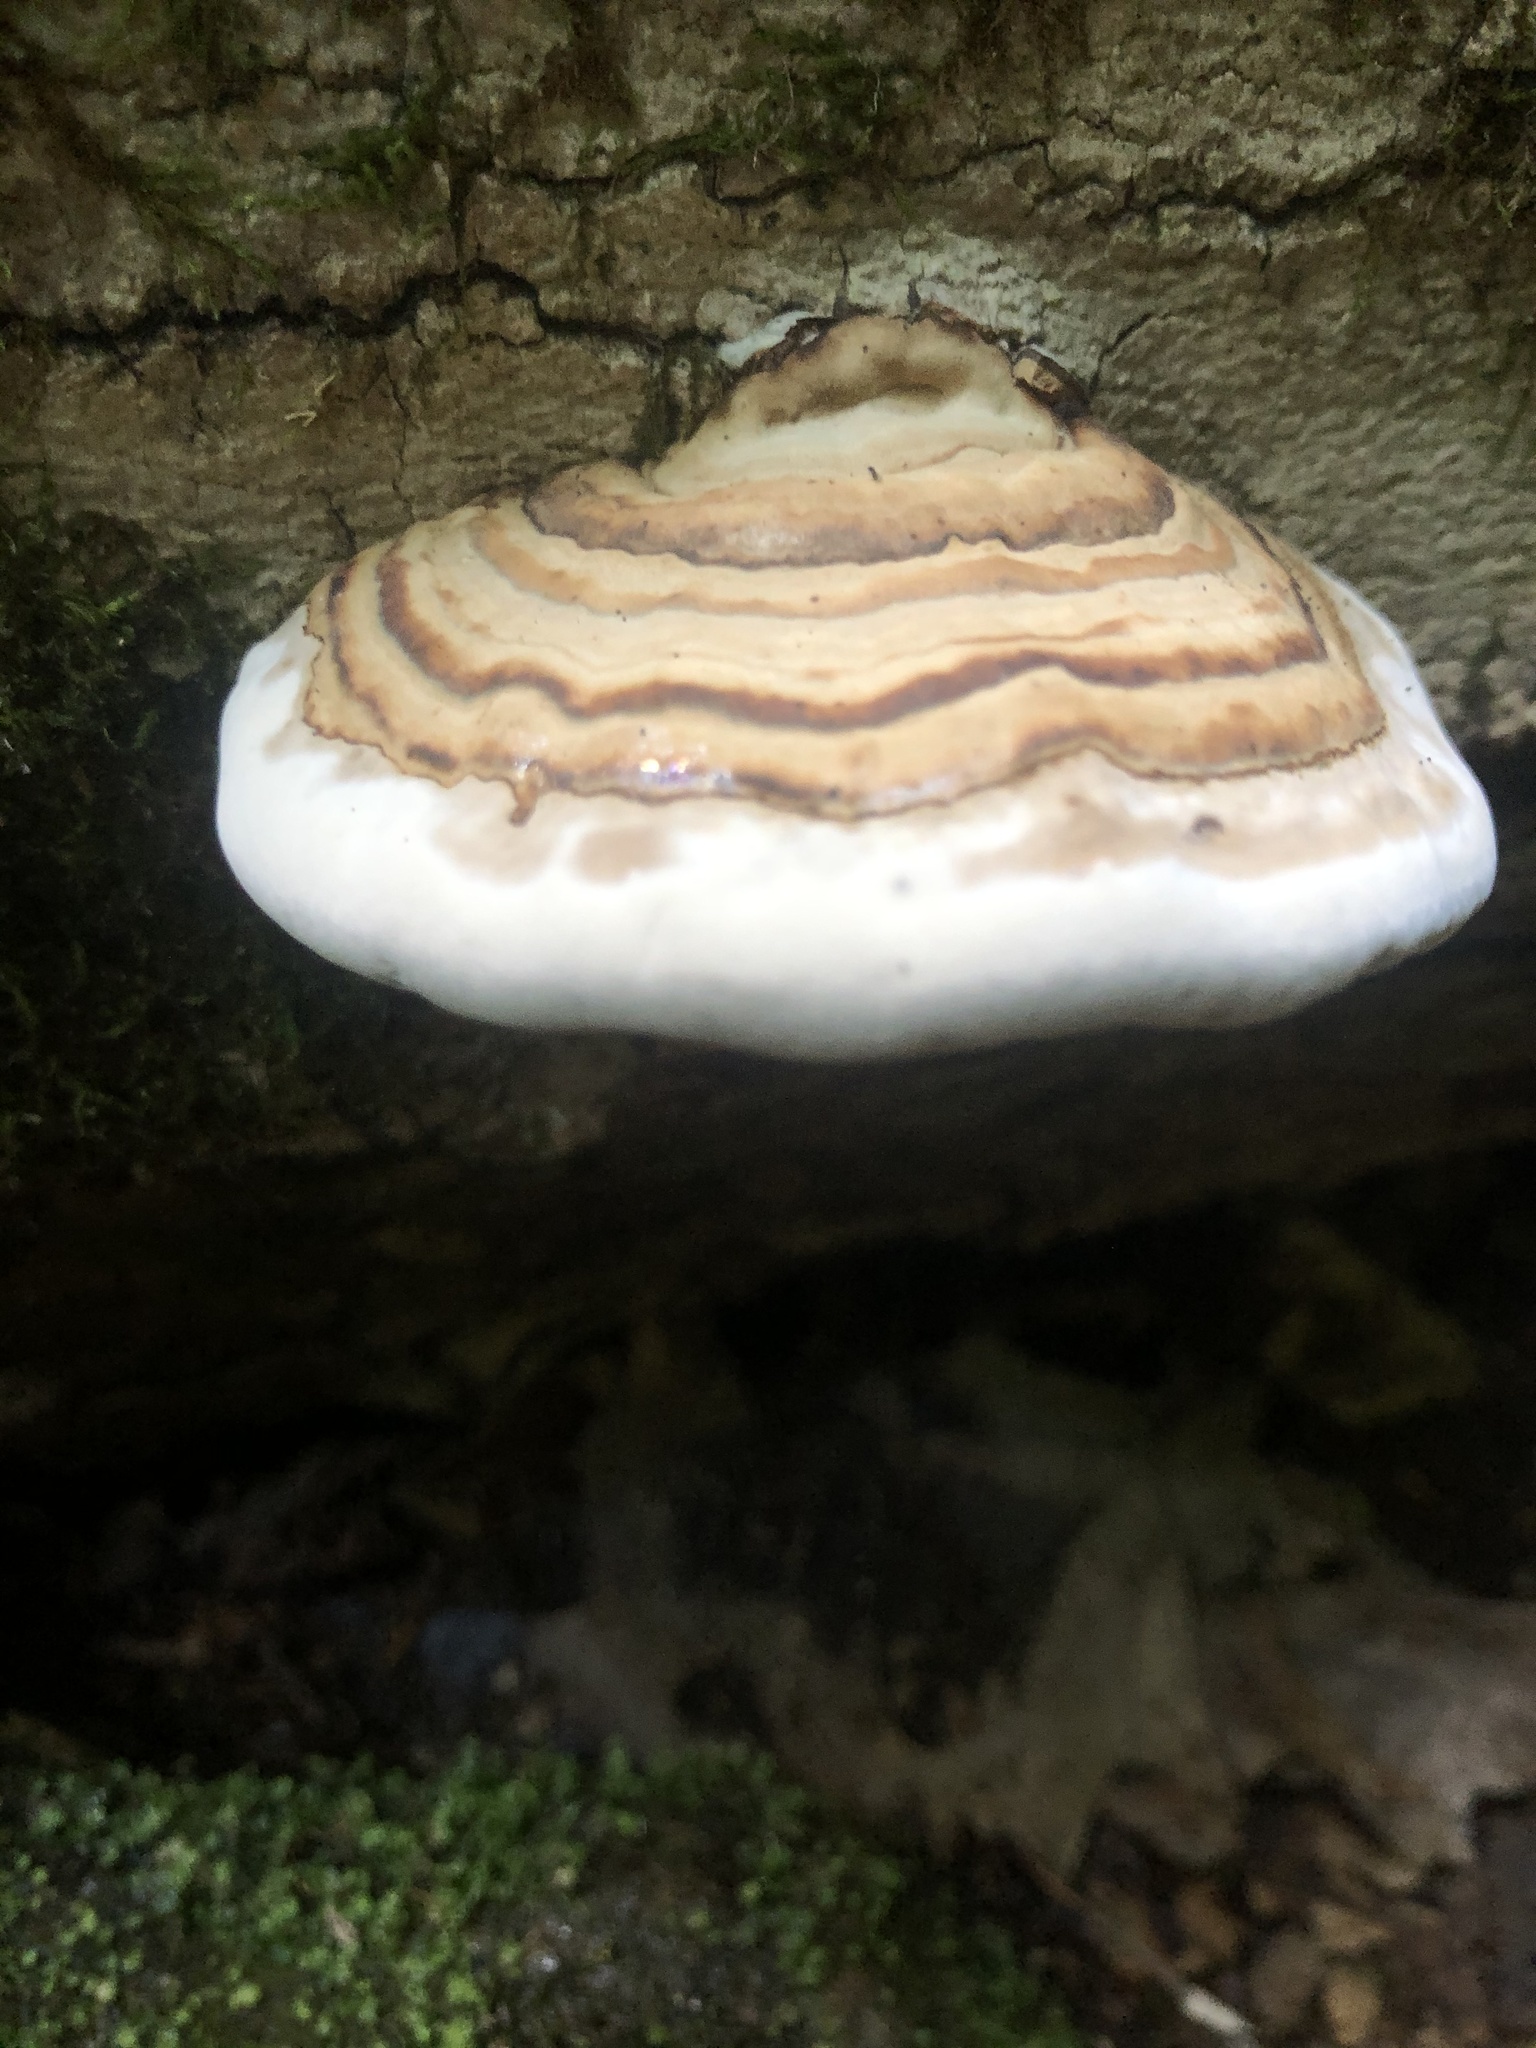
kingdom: Fungi
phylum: Basidiomycota
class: Agaricomycetes
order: Polyporales
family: Polyporaceae
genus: Fomes
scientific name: Fomes fomentarius
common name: Hoof fungus
